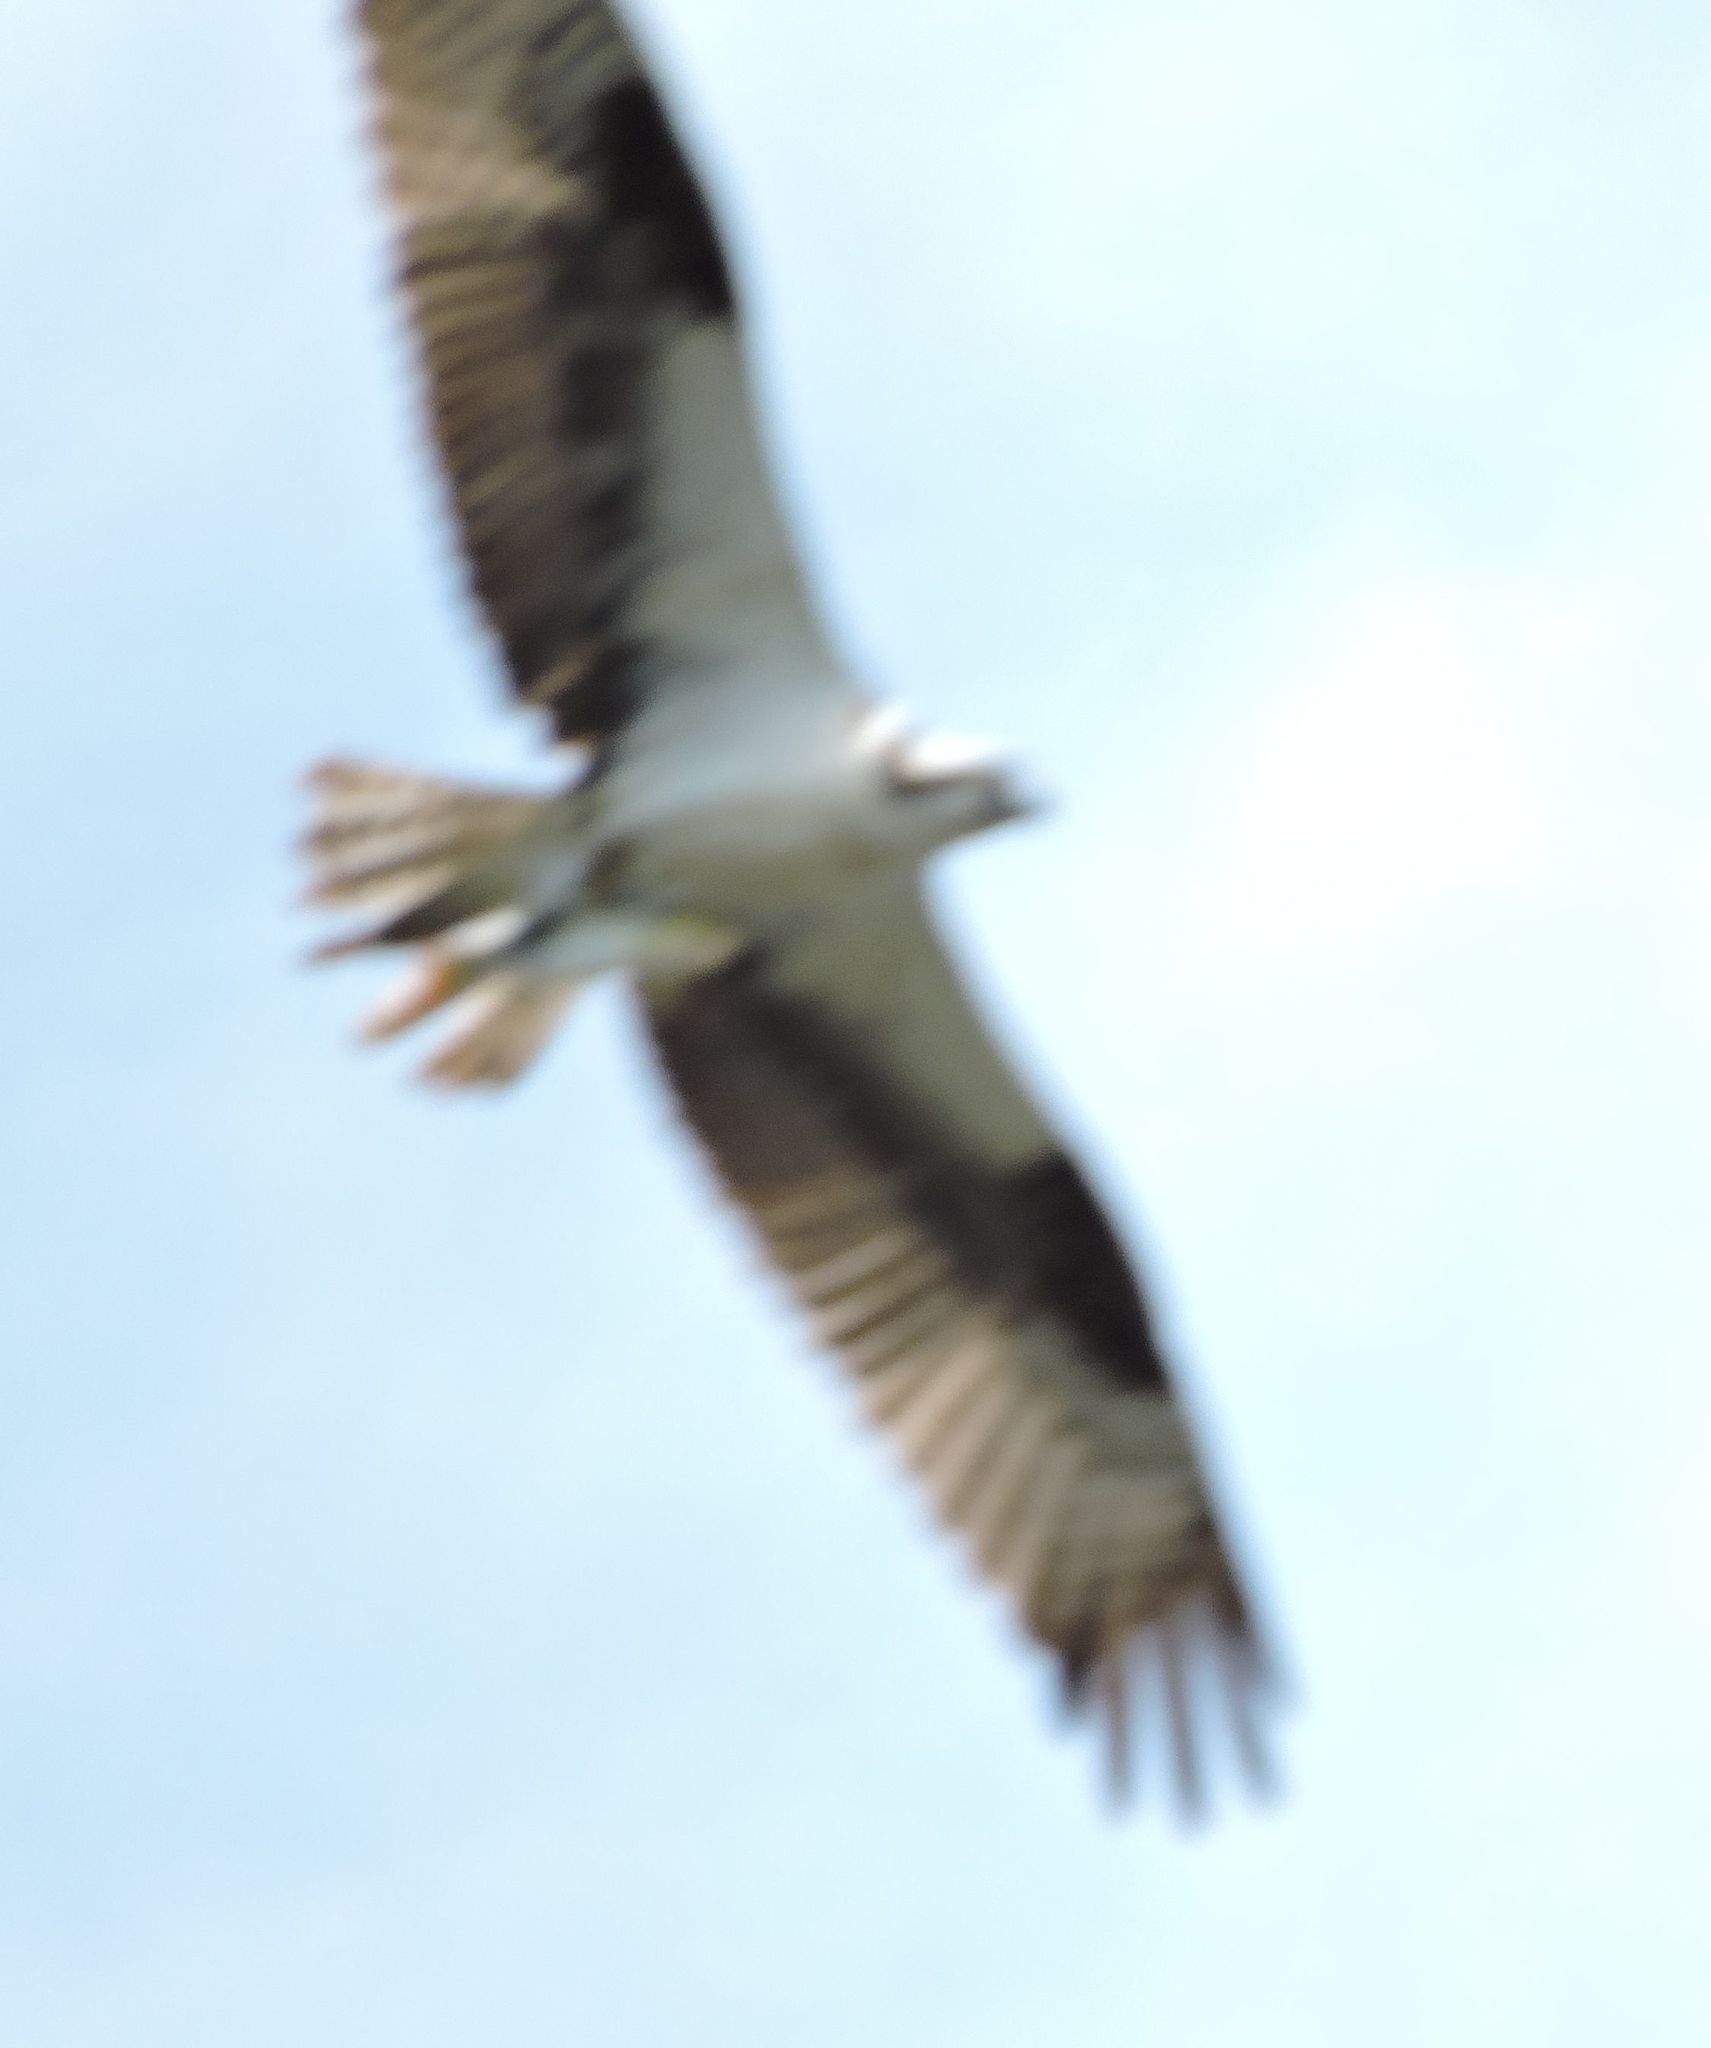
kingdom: Animalia
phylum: Chordata
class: Aves
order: Accipitriformes
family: Pandionidae
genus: Pandion
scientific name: Pandion haliaetus
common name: Osprey
